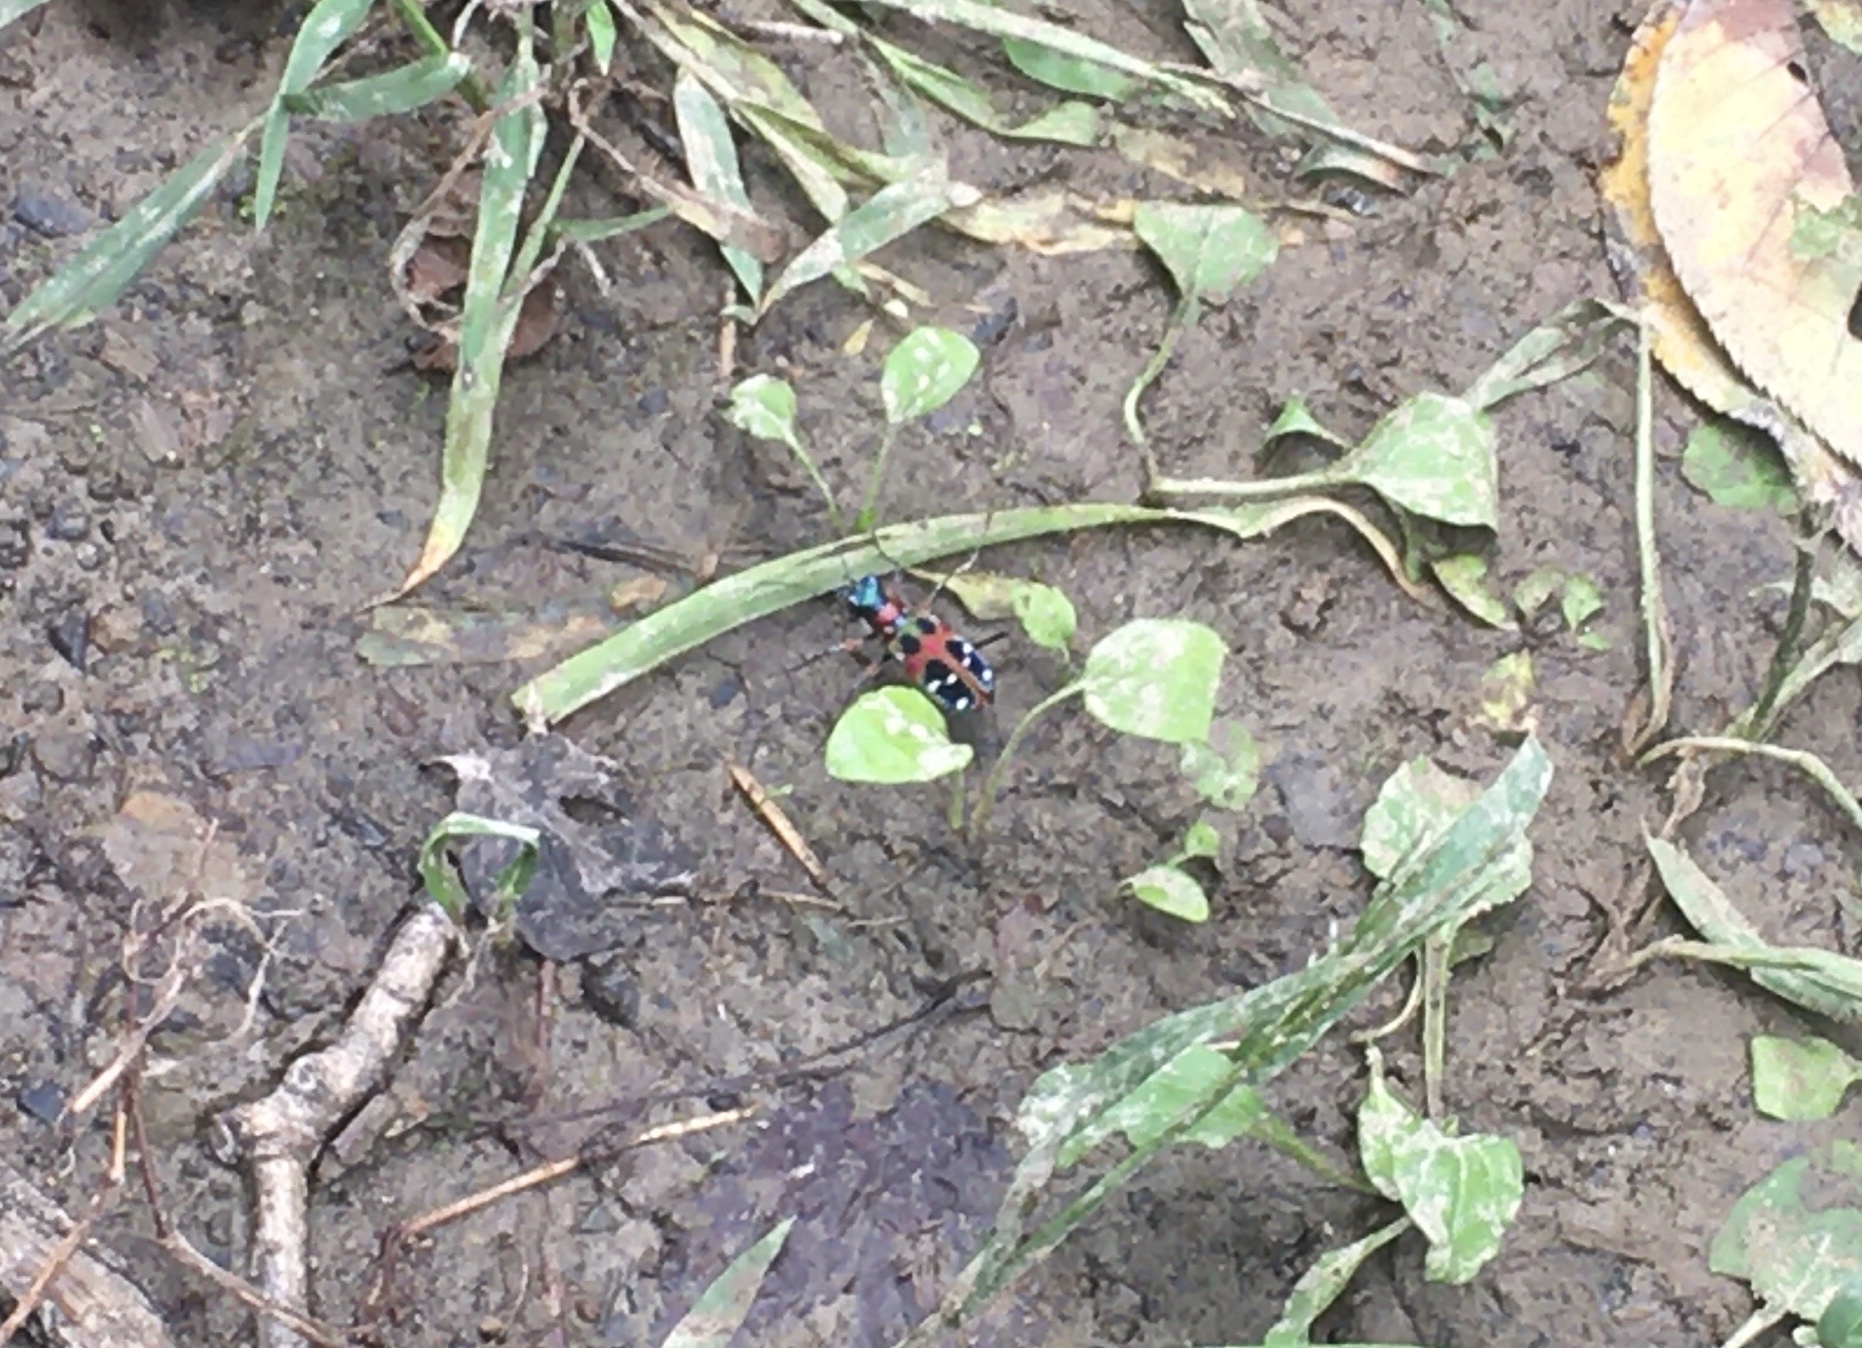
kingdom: Animalia
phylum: Arthropoda
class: Insecta
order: Coleoptera
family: Carabidae
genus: Cicindela
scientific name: Cicindela chinensis
